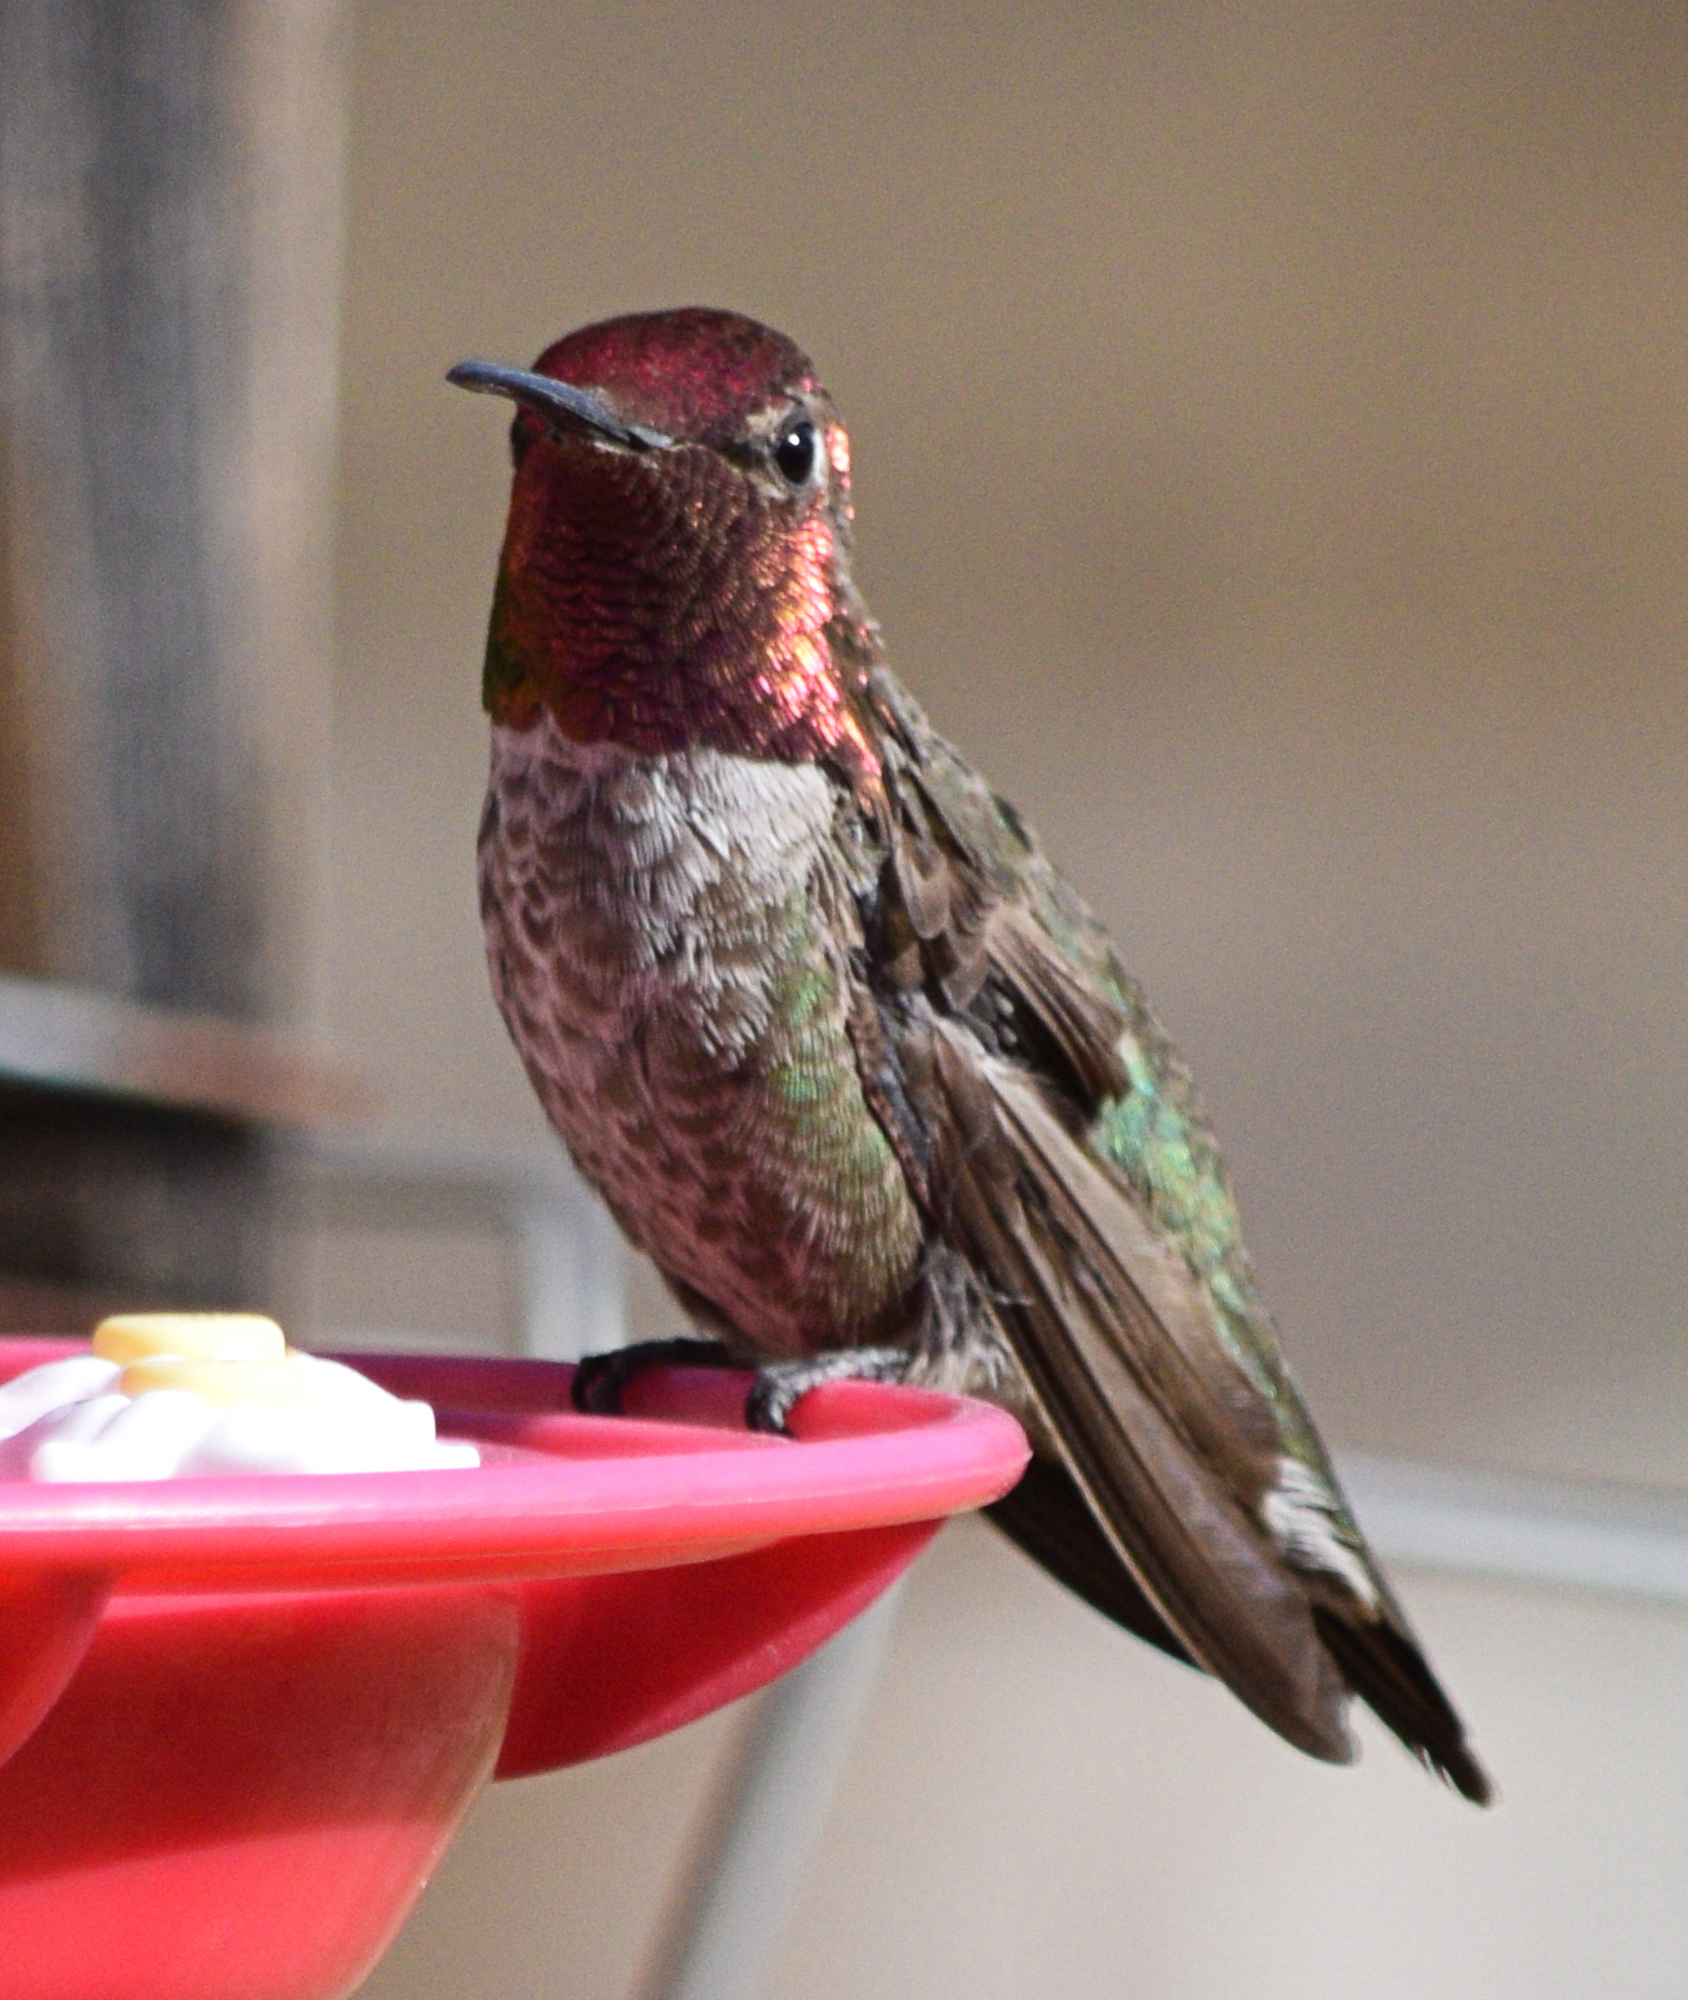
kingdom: Animalia
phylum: Chordata
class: Aves
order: Apodiformes
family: Trochilidae
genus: Calypte
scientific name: Calypte anna
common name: Anna's hummingbird
